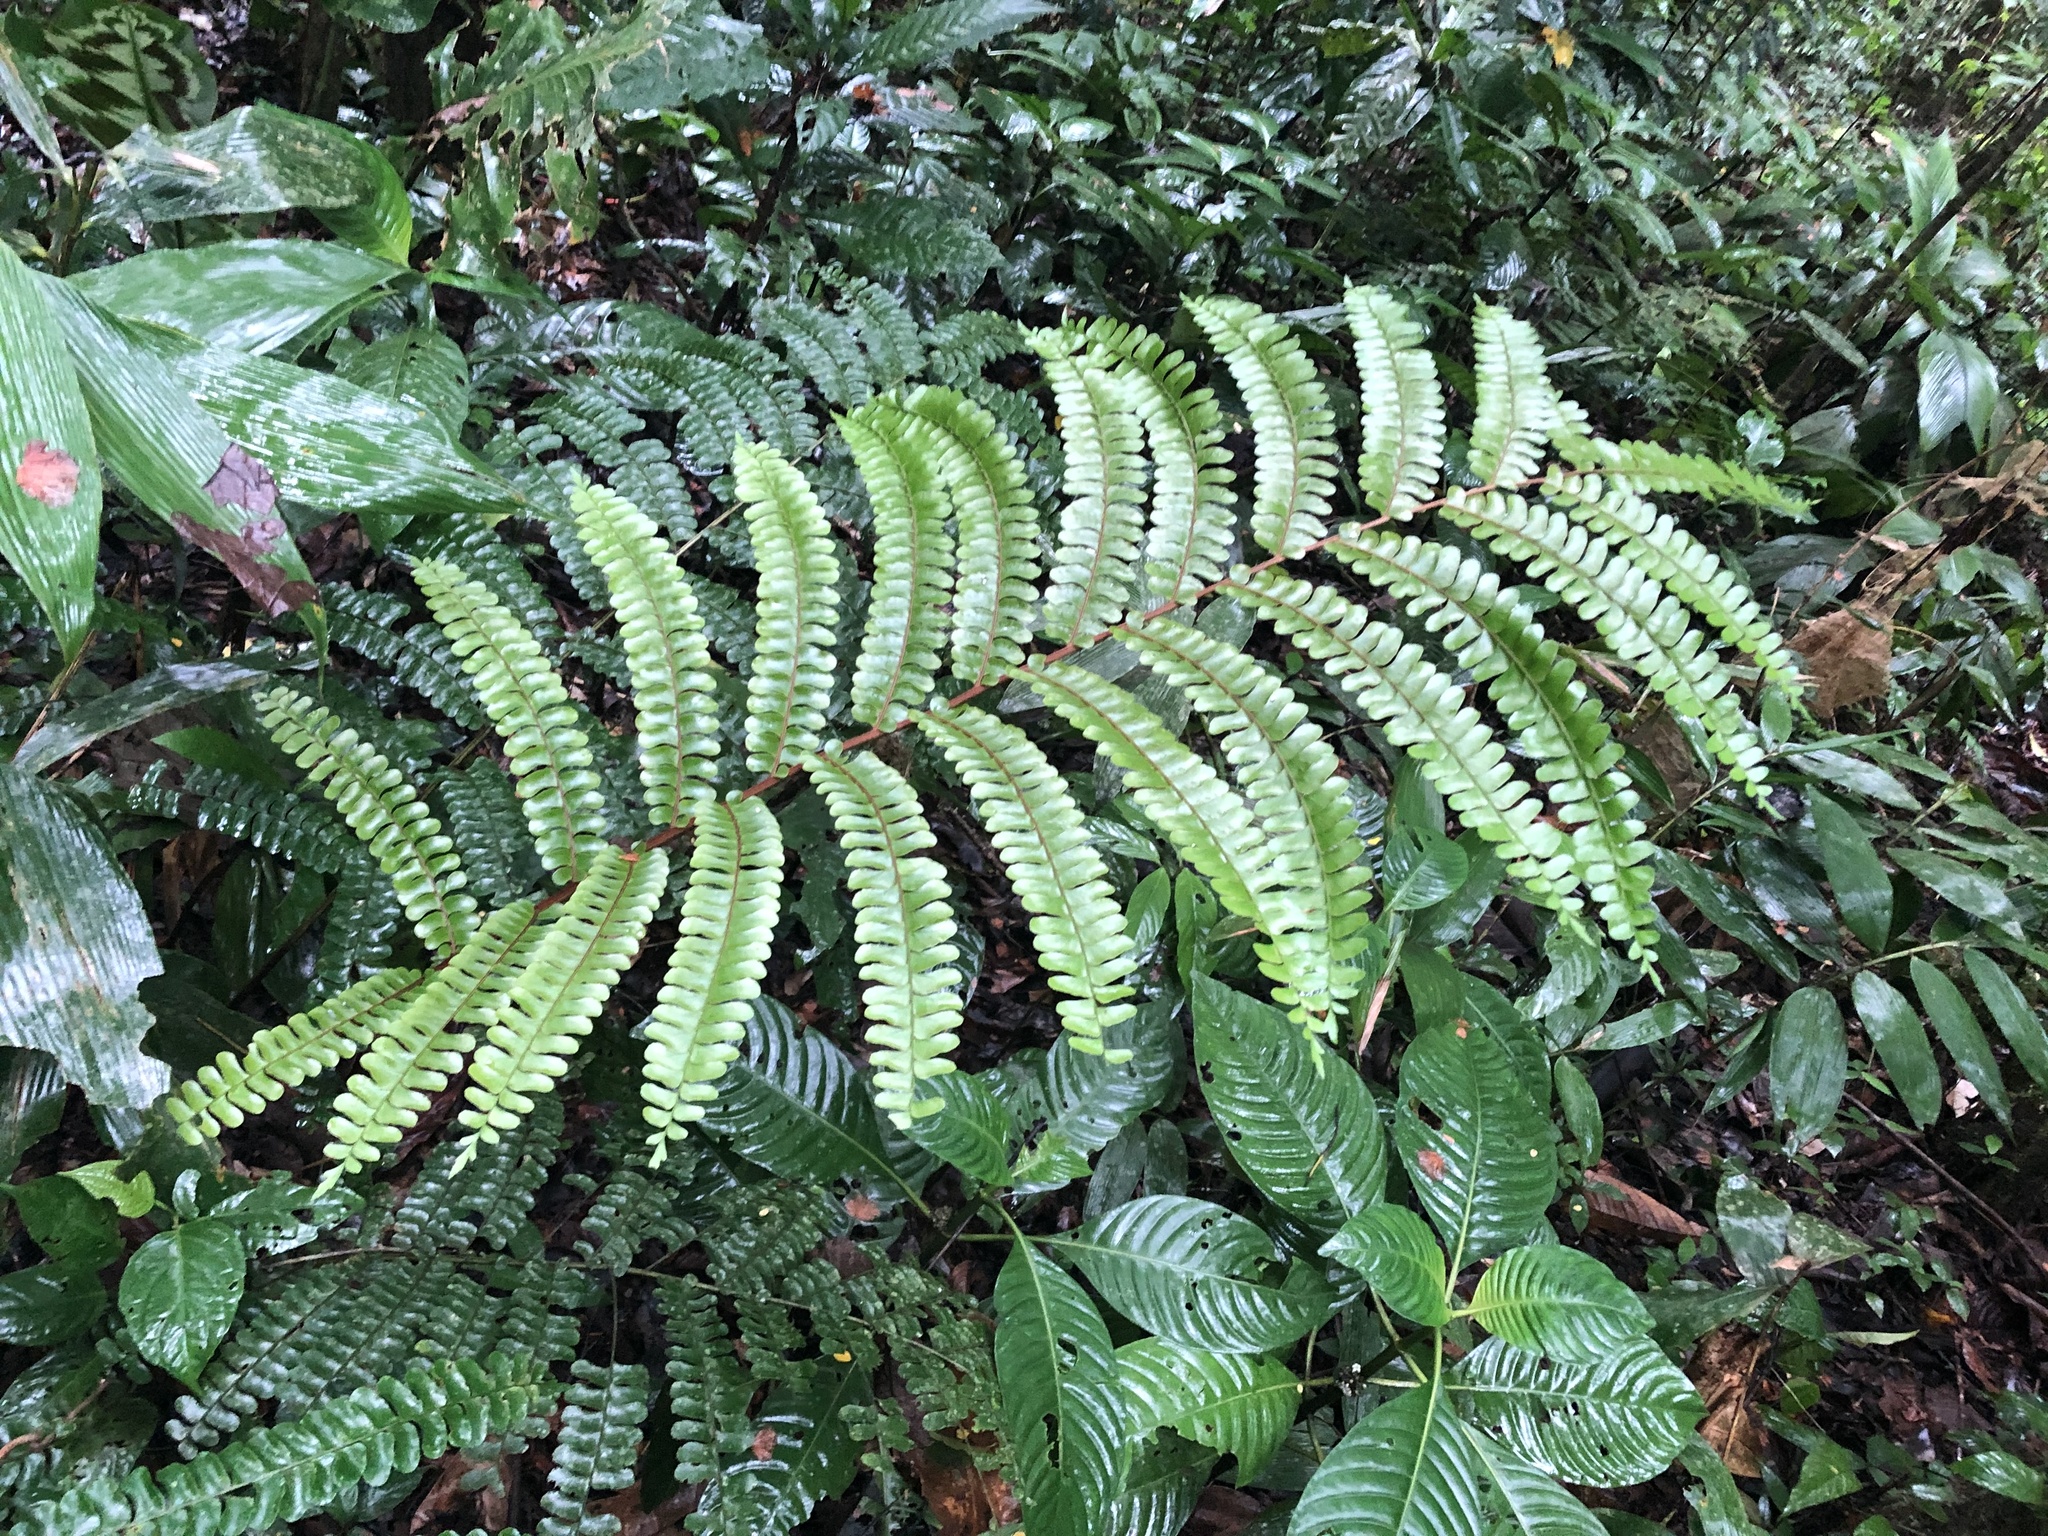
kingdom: Plantae
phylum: Tracheophyta
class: Polypodiopsida
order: Polypodiales
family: Didymochlaenaceae
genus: Didymochlaena
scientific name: Didymochlaena truncatula
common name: Mahogany fern
